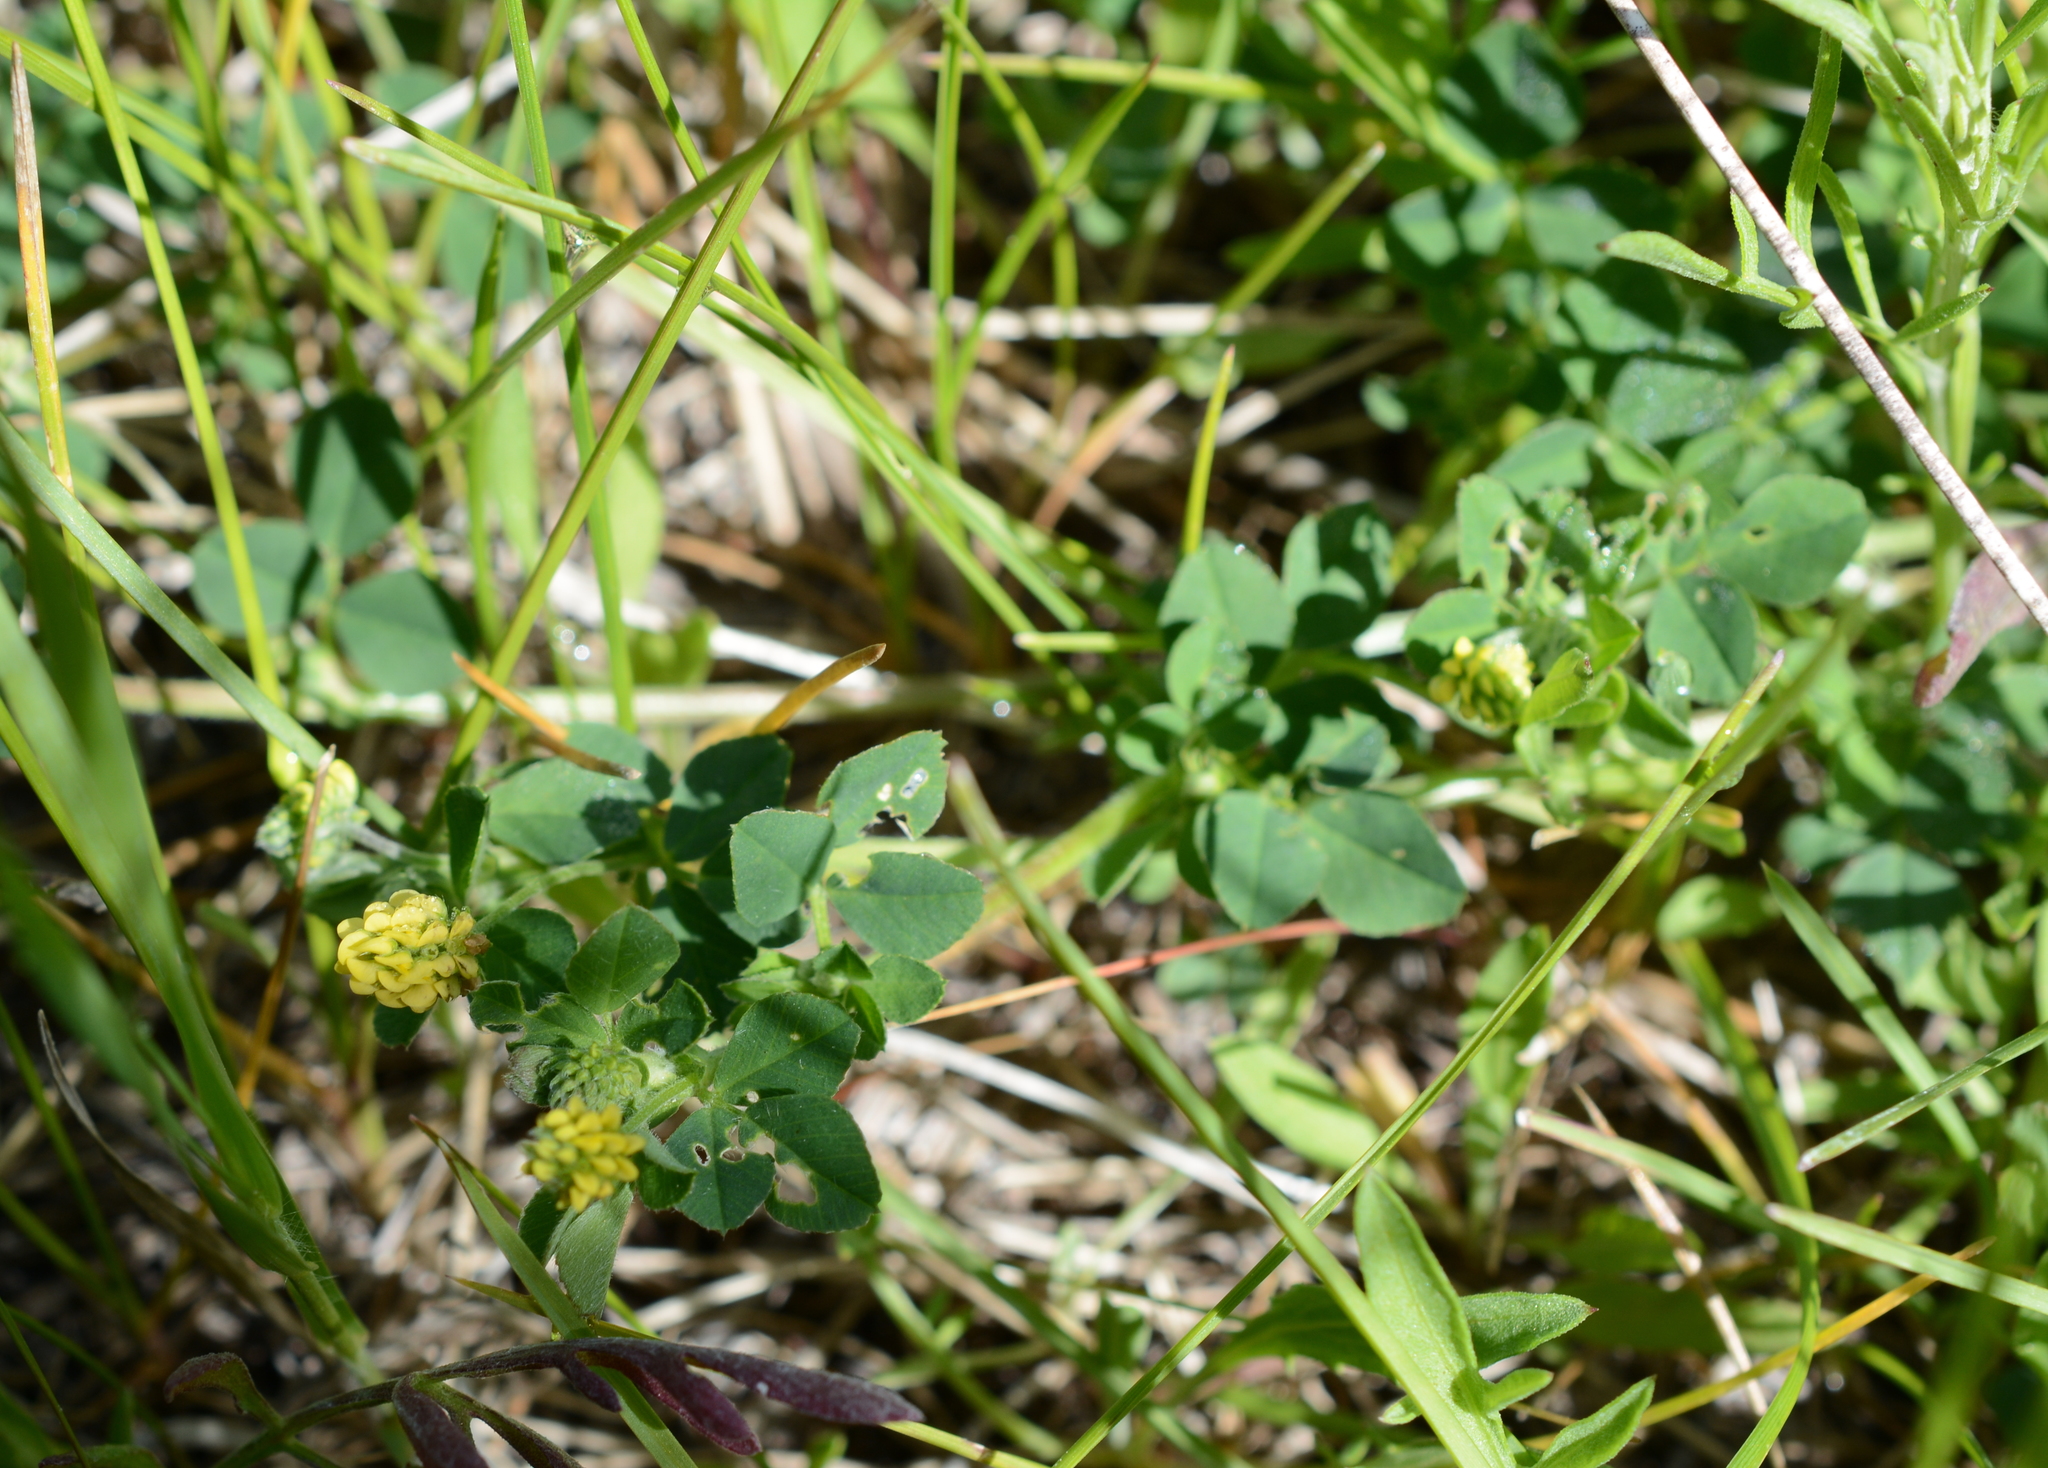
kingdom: Plantae
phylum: Tracheophyta
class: Magnoliopsida
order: Fabales
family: Fabaceae
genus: Medicago
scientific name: Medicago lupulina
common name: Black medick
